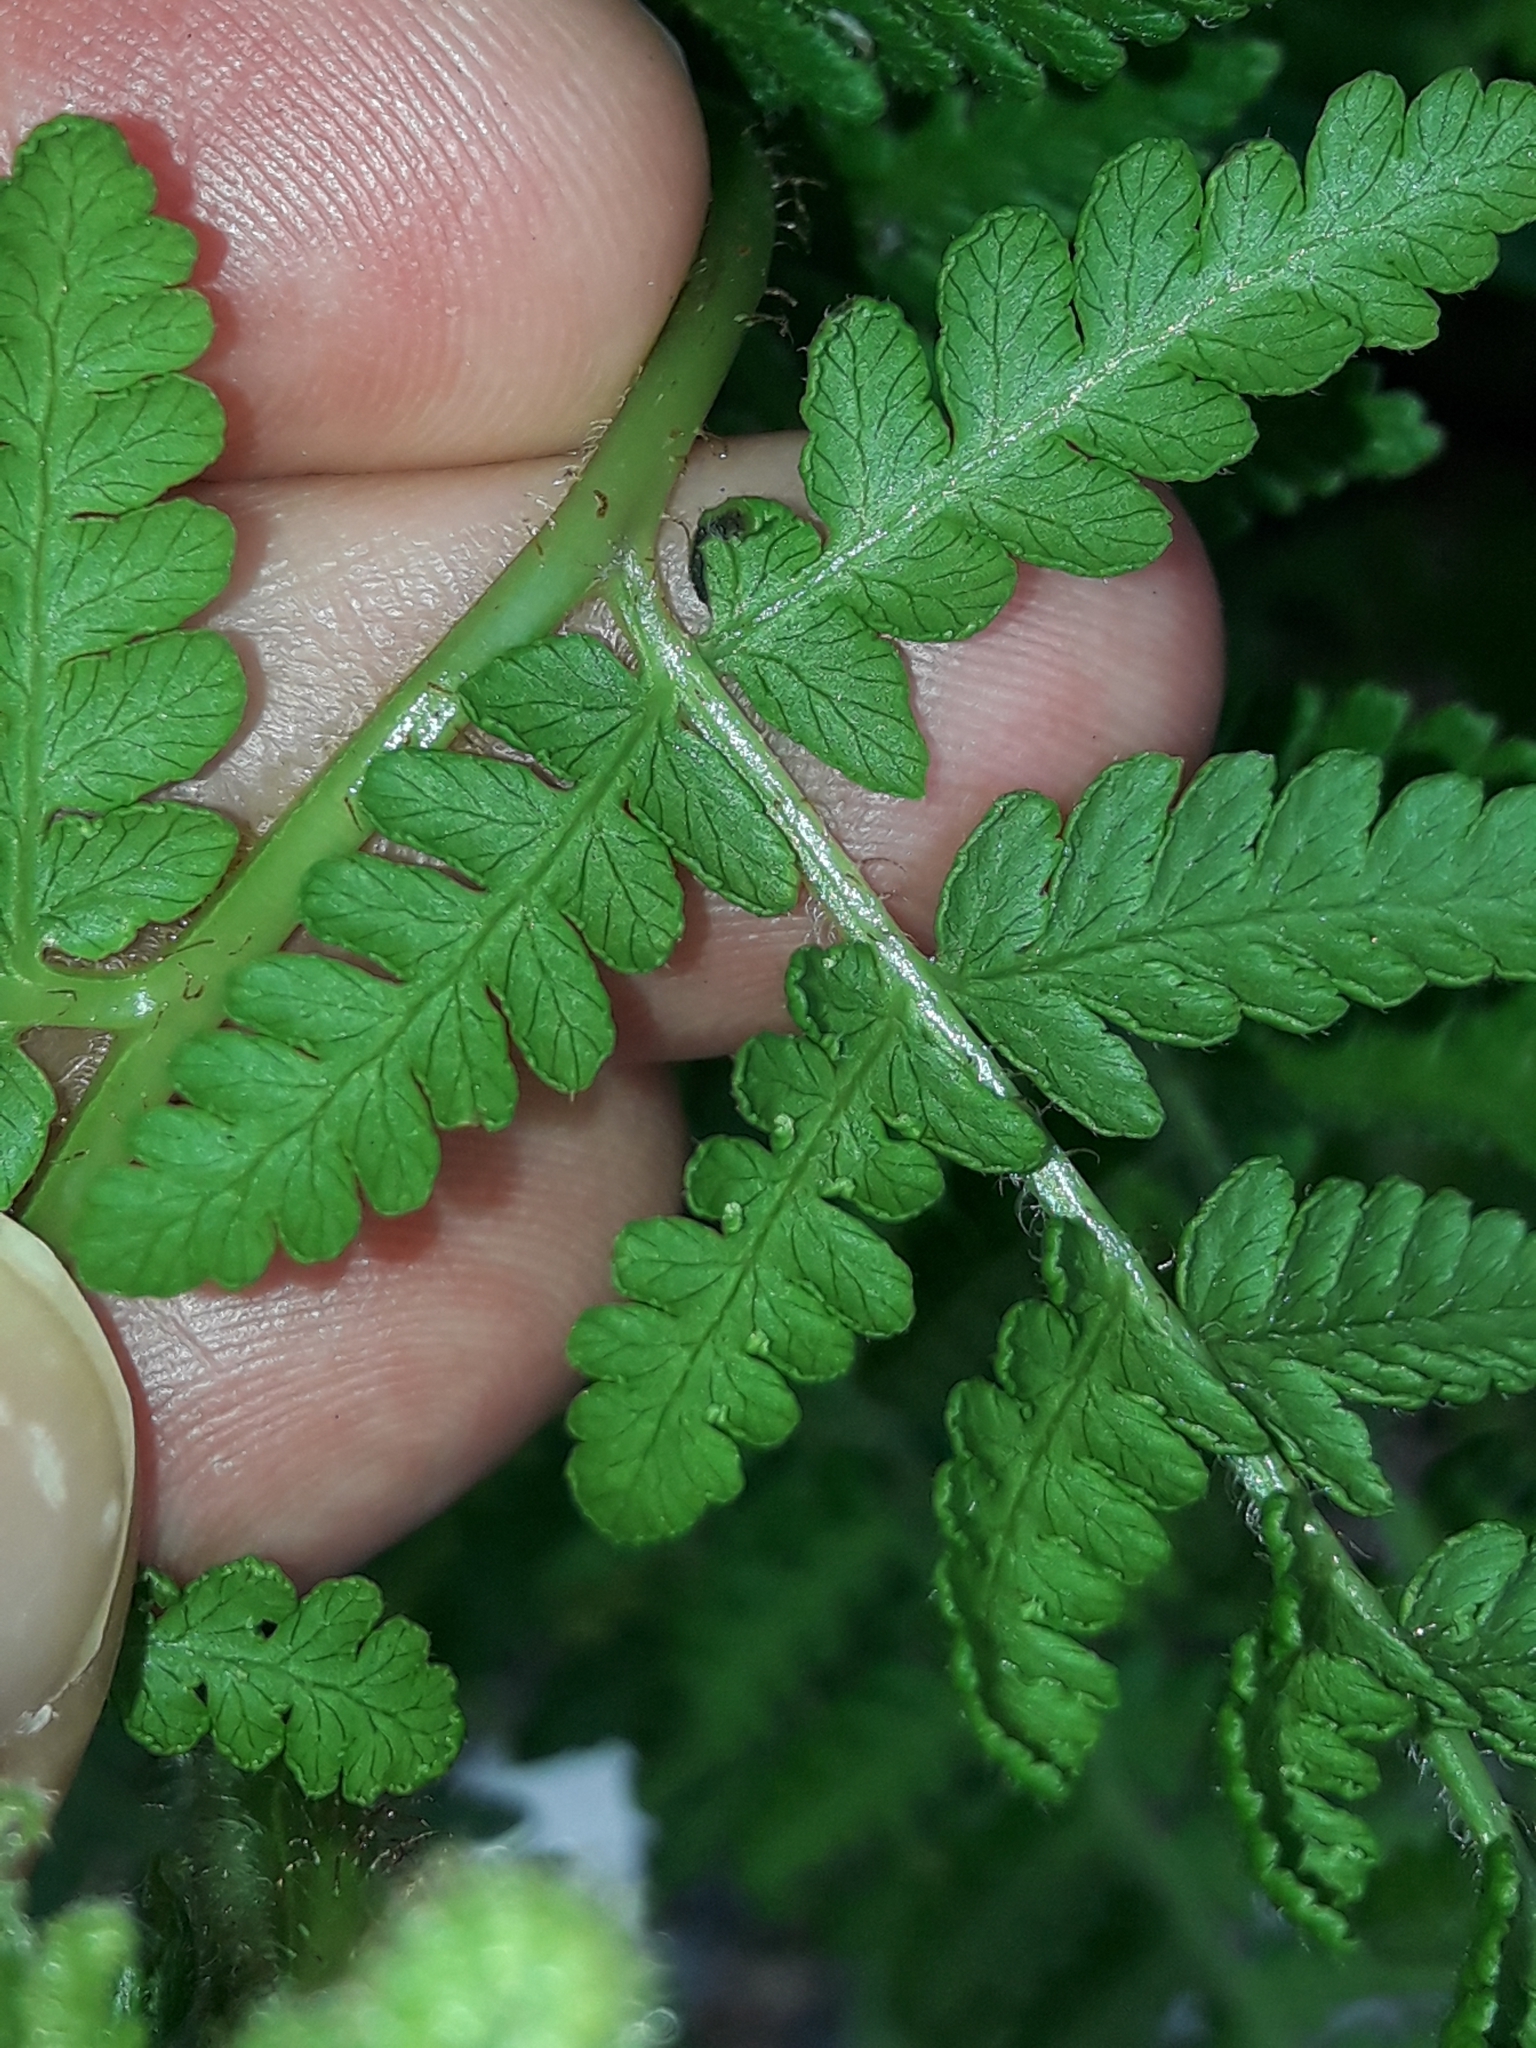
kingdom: Plantae
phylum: Tracheophyta
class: Polypodiopsida
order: Polypodiales
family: Dennstaedtiaceae
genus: Hypolepis
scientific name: Hypolepis ambigua
